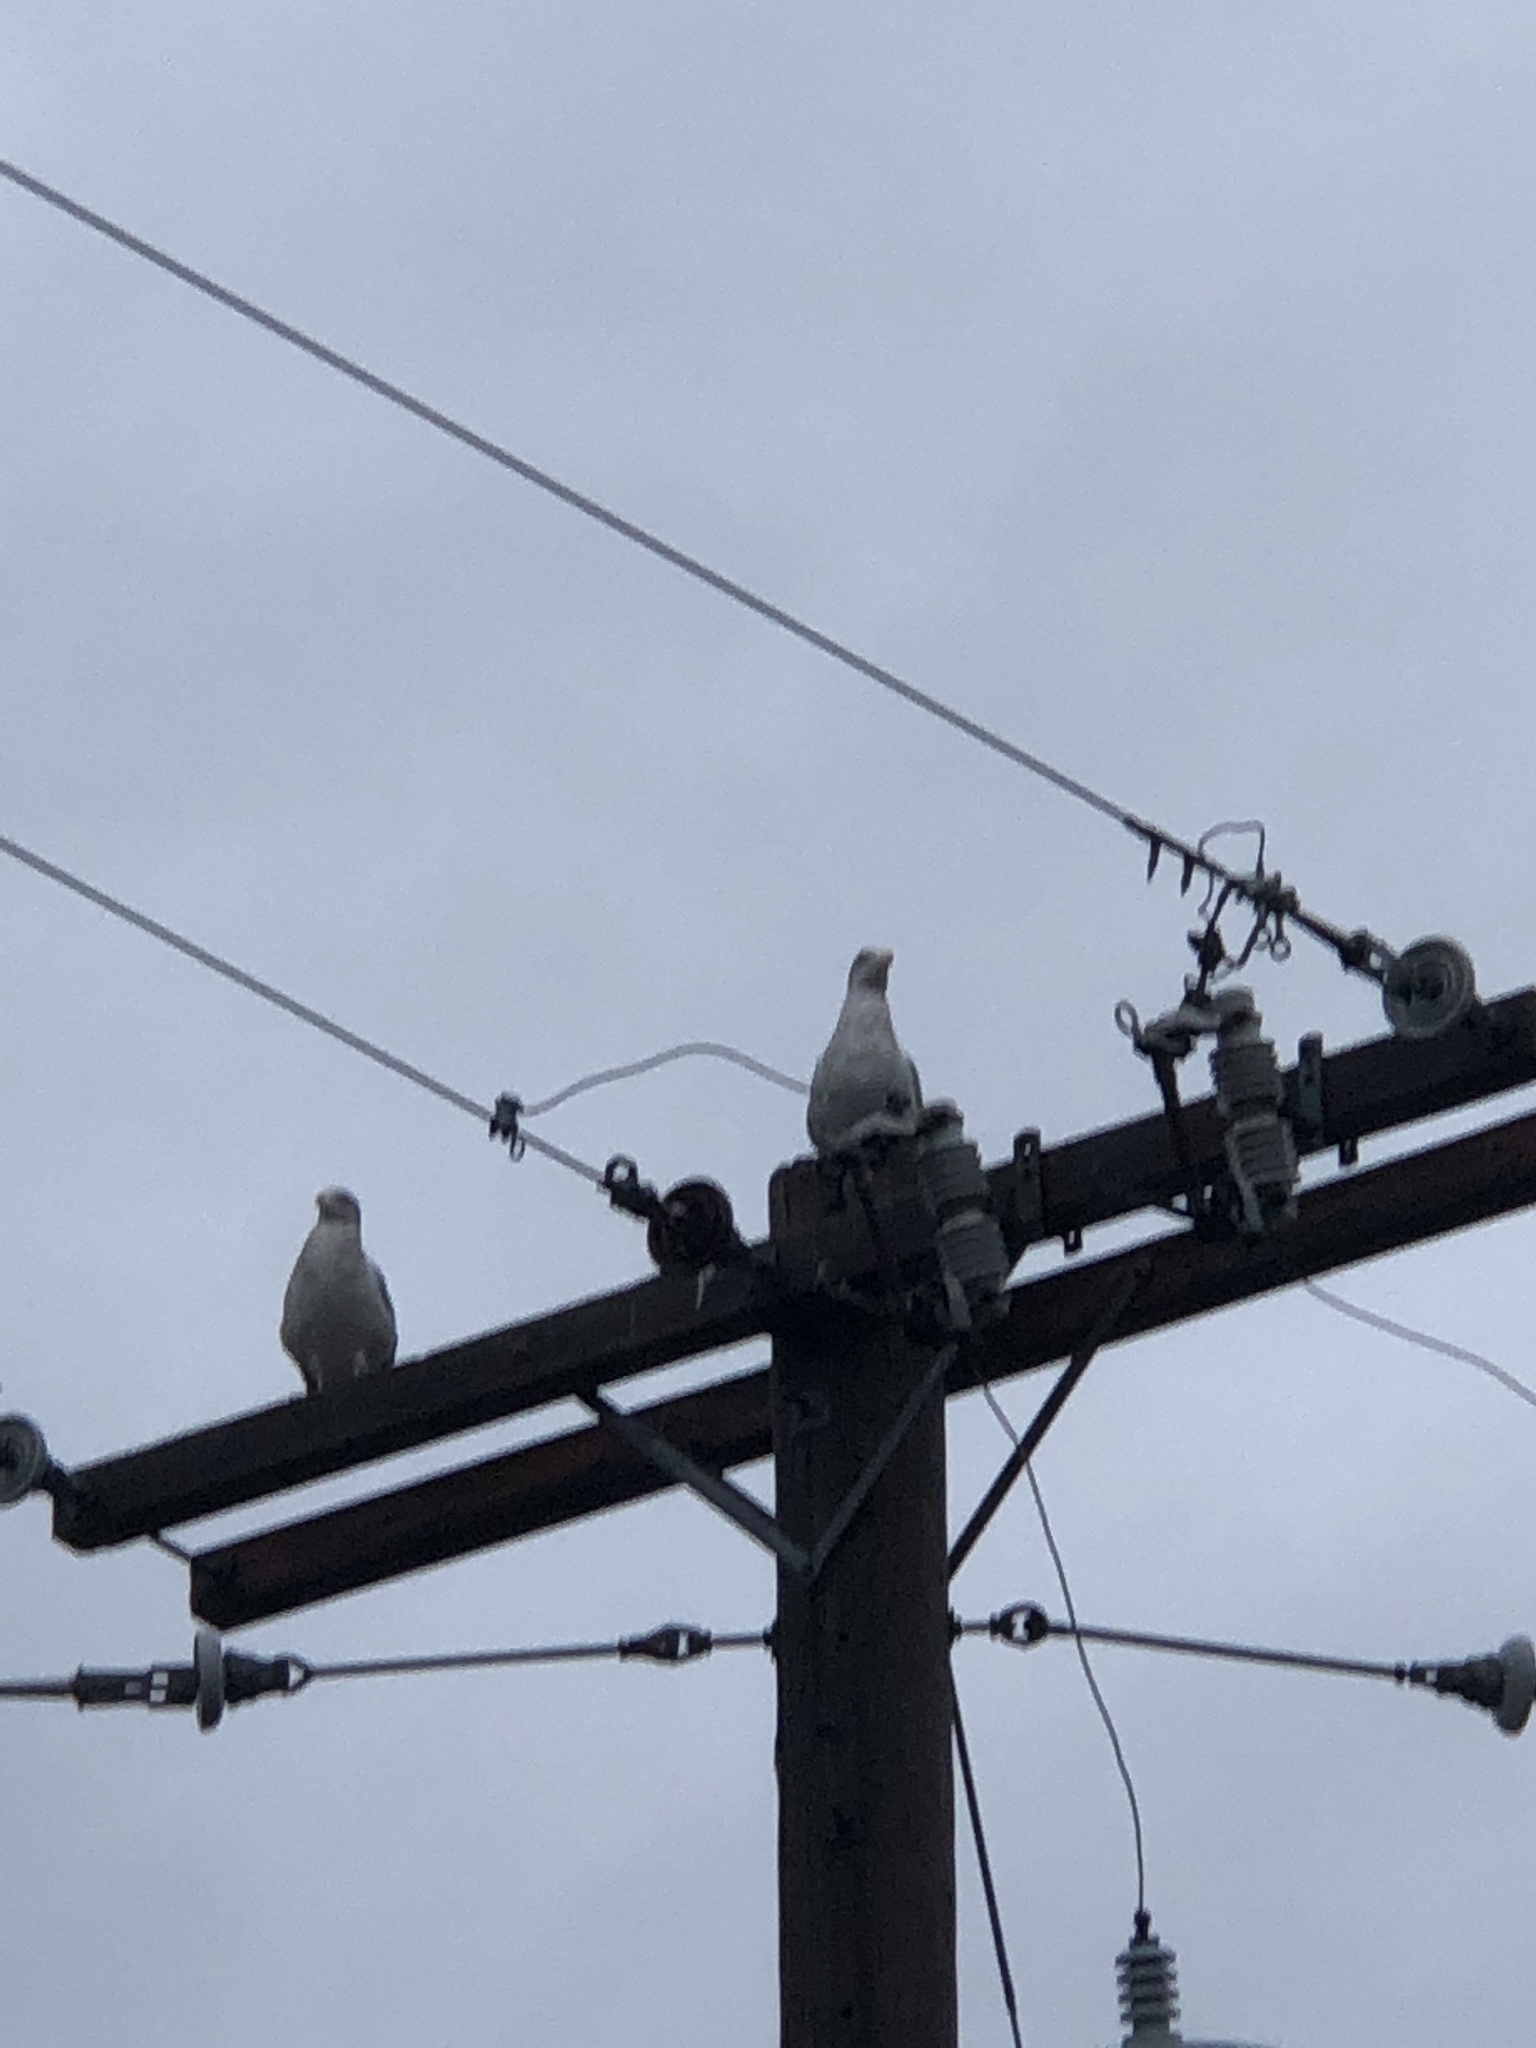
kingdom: Animalia
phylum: Chordata
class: Aves
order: Charadriiformes
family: Laridae
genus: Larus
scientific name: Larus
